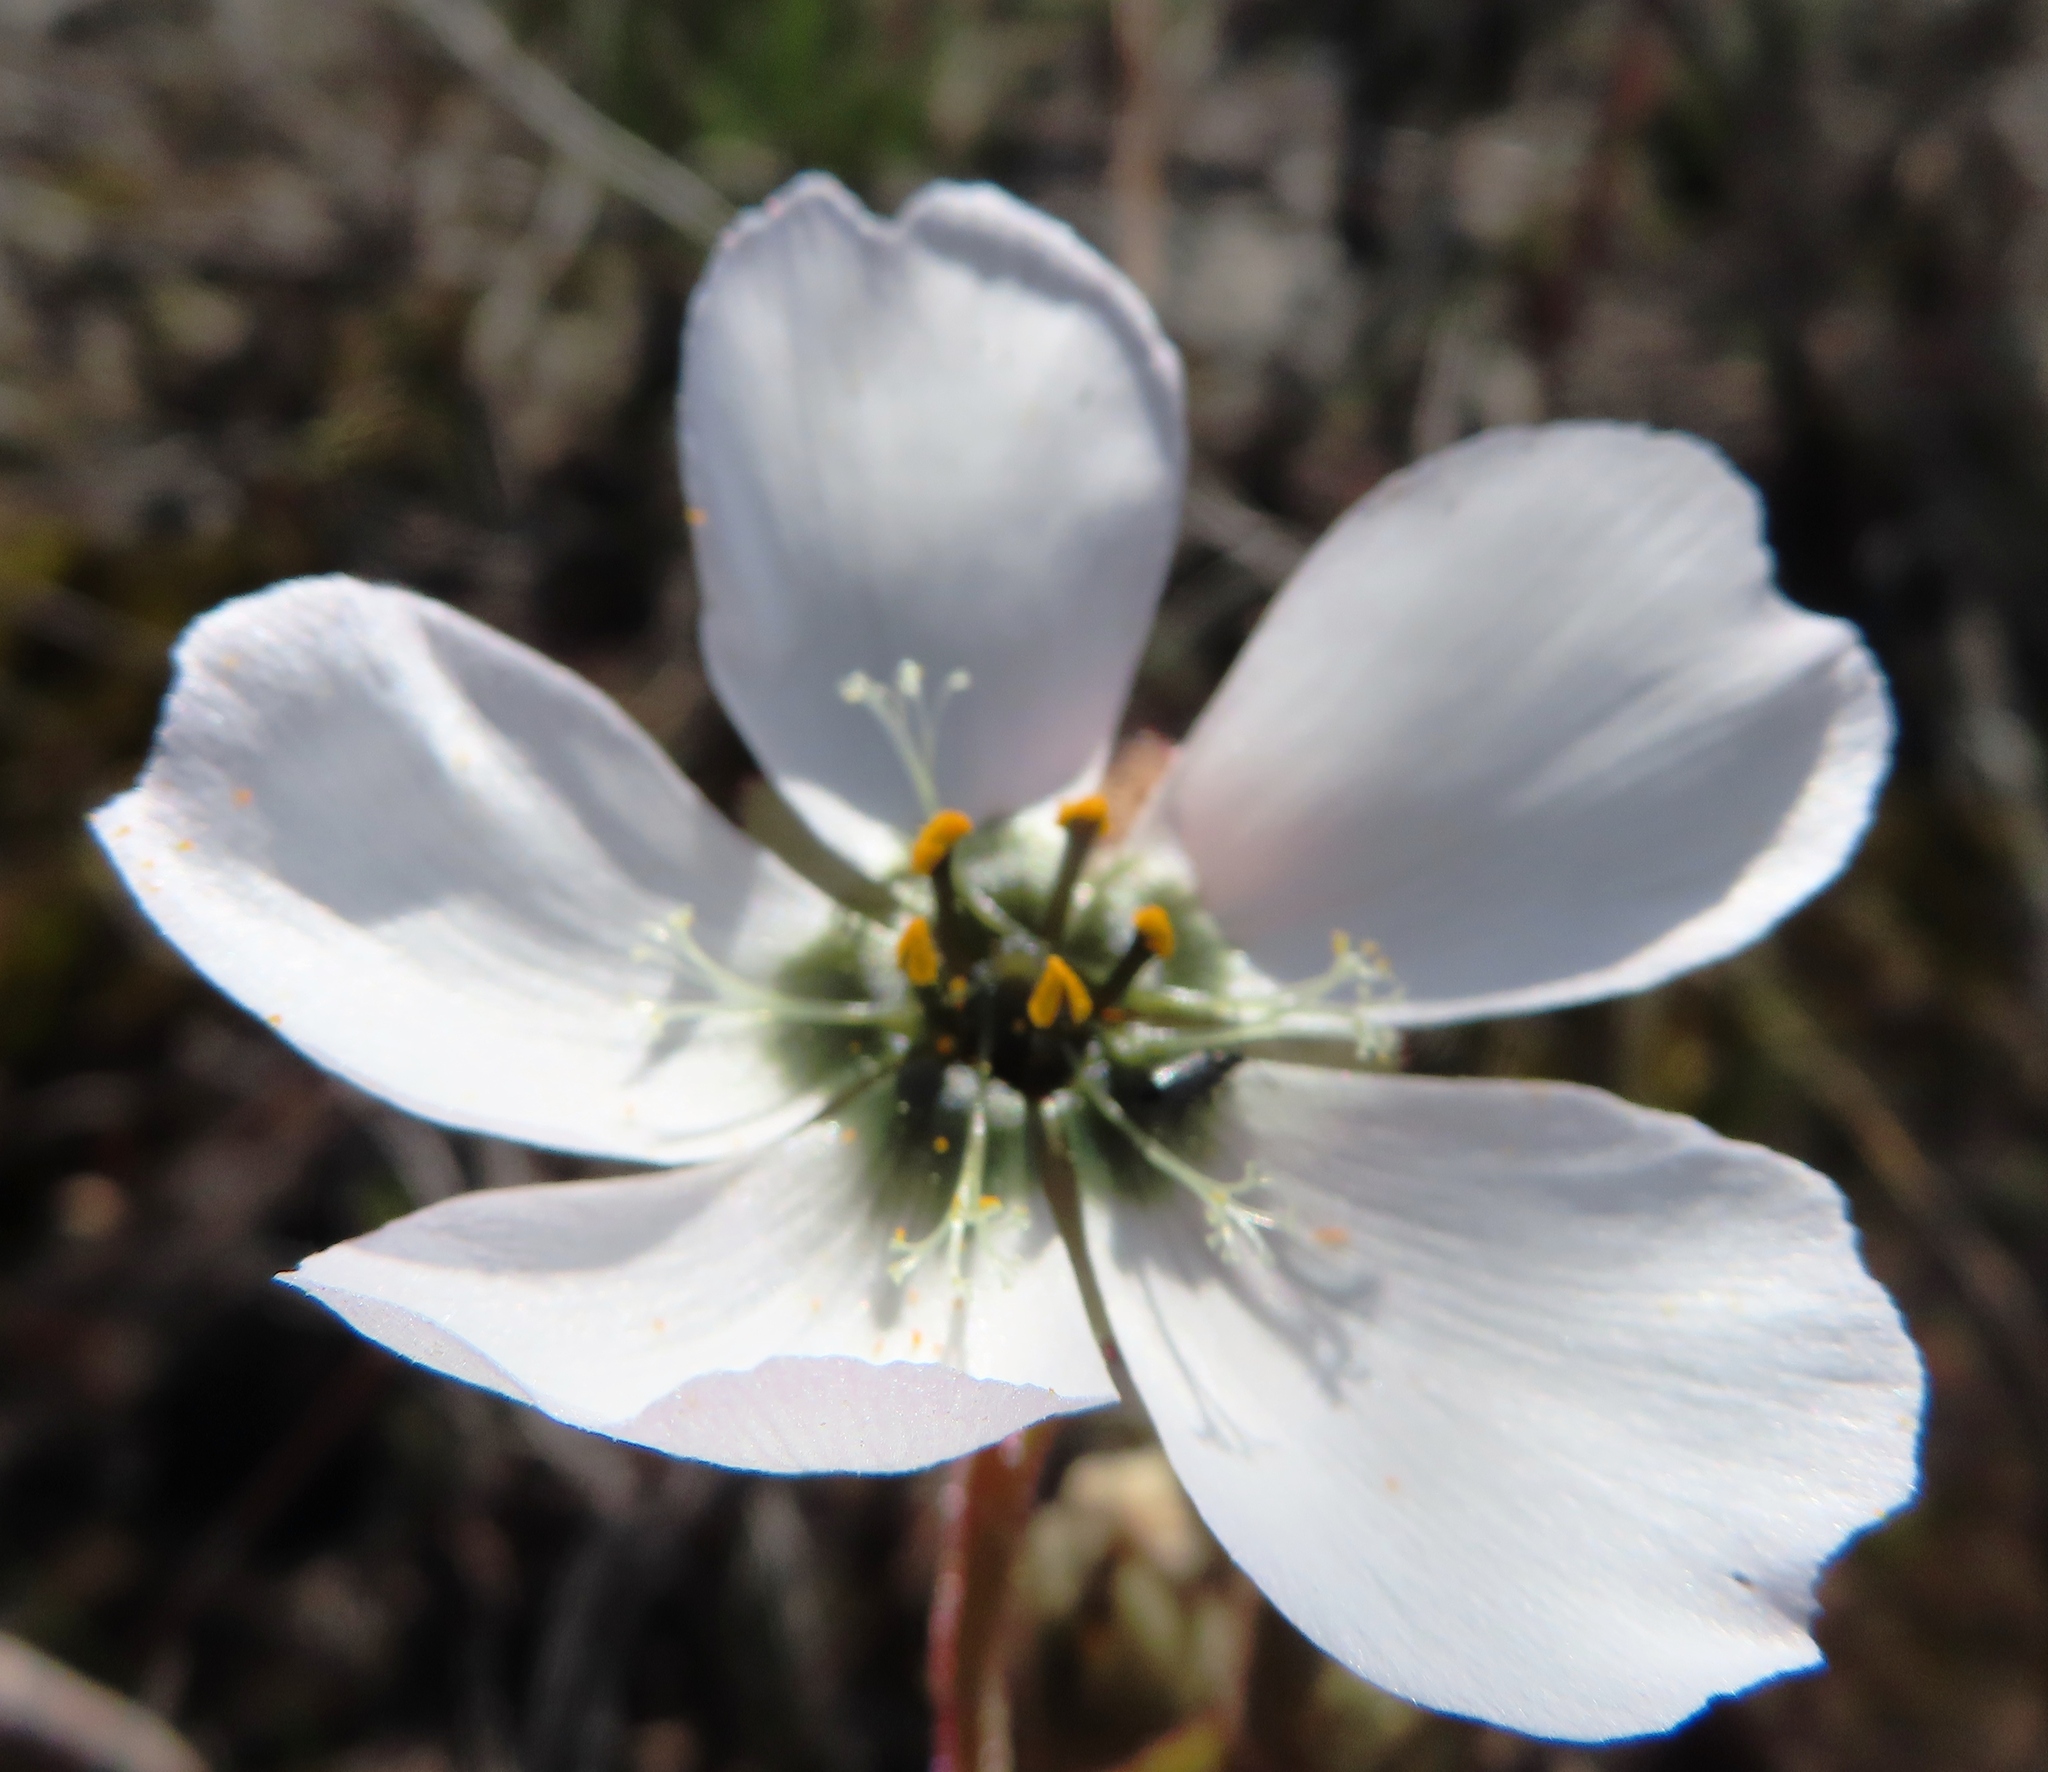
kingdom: Plantae
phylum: Tracheophyta
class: Magnoliopsida
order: Caryophyllales
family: Droseraceae
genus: Drosera
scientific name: Drosera cistiflora
